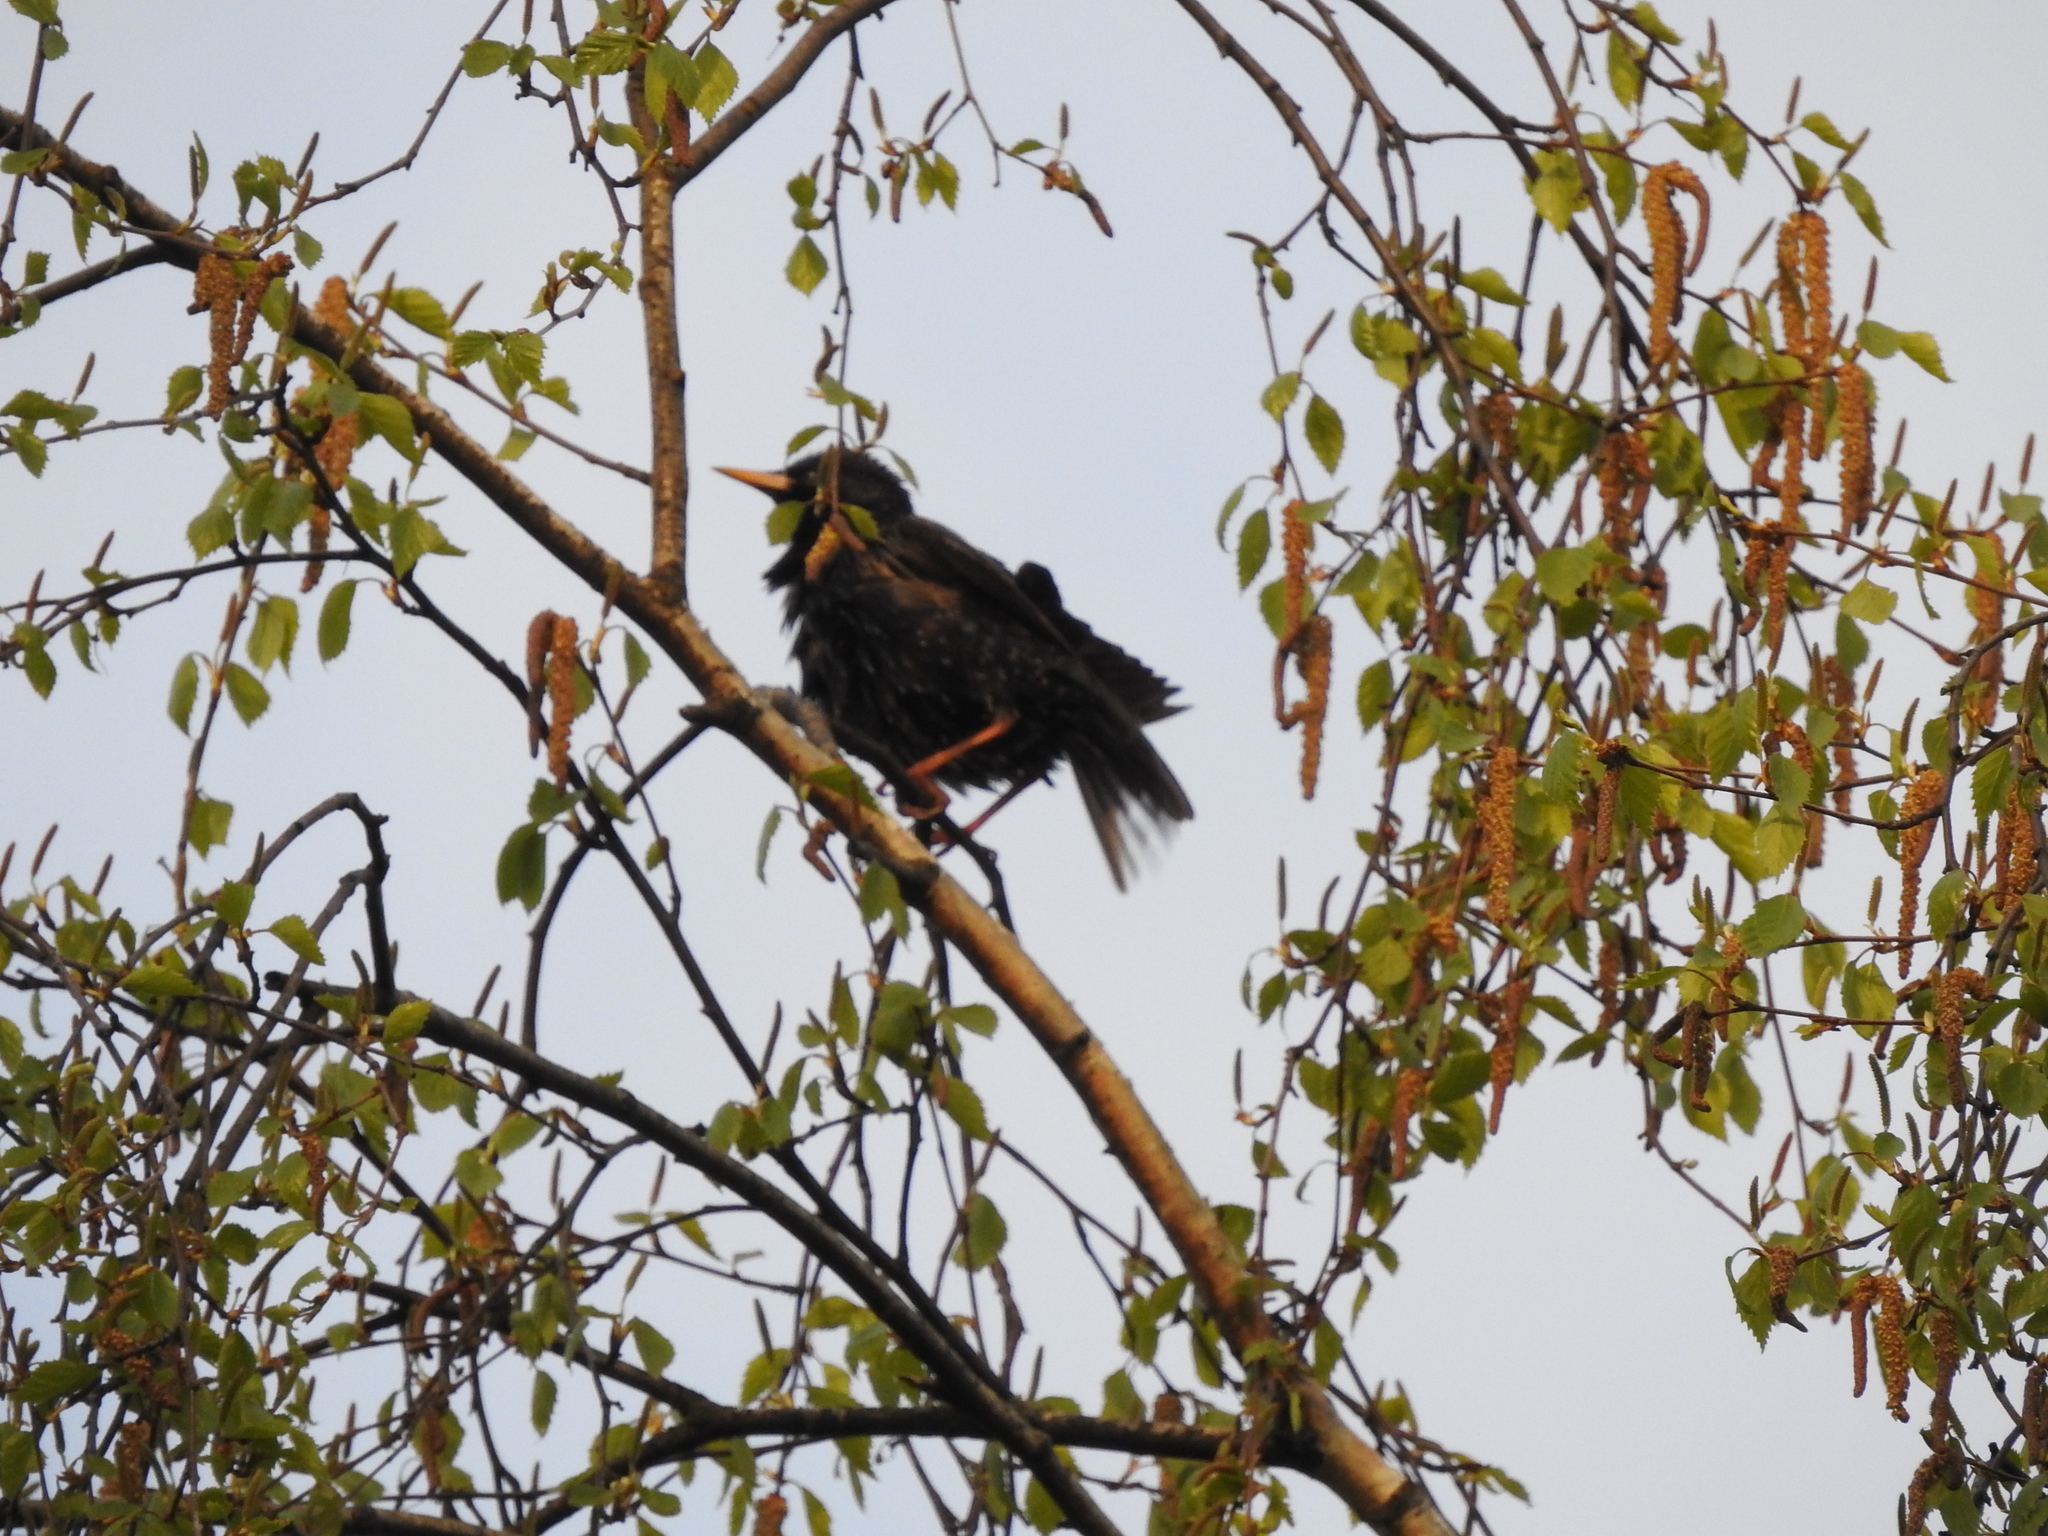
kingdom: Animalia
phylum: Chordata
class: Aves
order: Passeriformes
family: Sturnidae
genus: Sturnus
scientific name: Sturnus vulgaris
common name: Common starling
